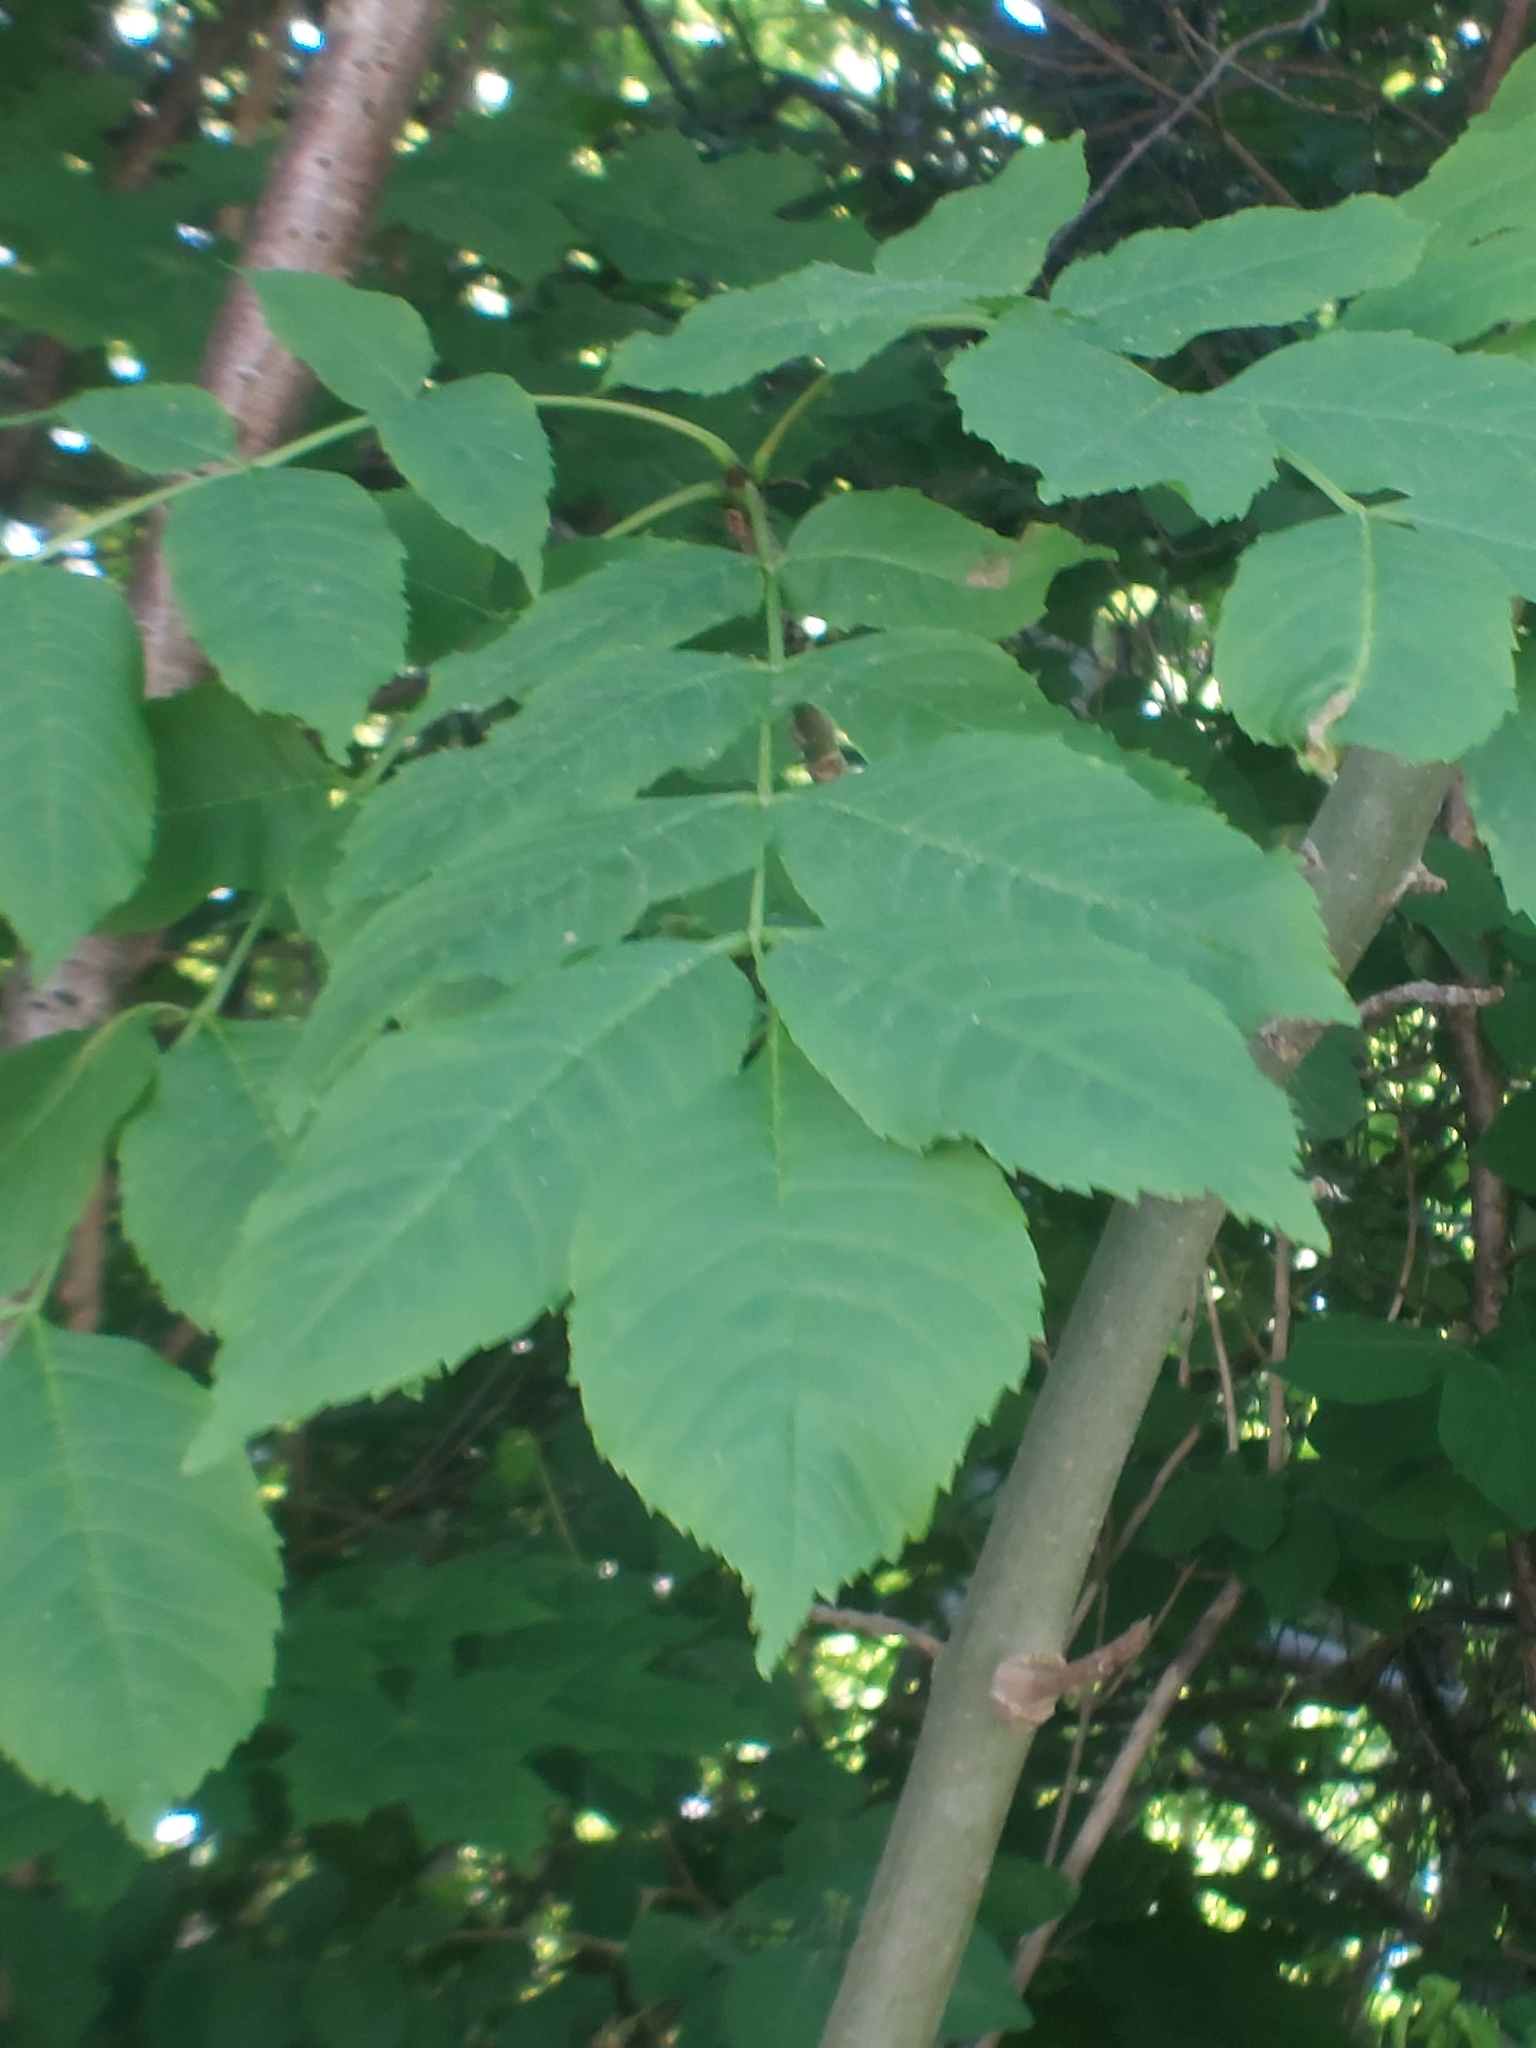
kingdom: Plantae
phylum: Tracheophyta
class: Magnoliopsida
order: Lamiales
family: Oleaceae
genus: Fraxinus
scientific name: Fraxinus excelsior
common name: European ash
